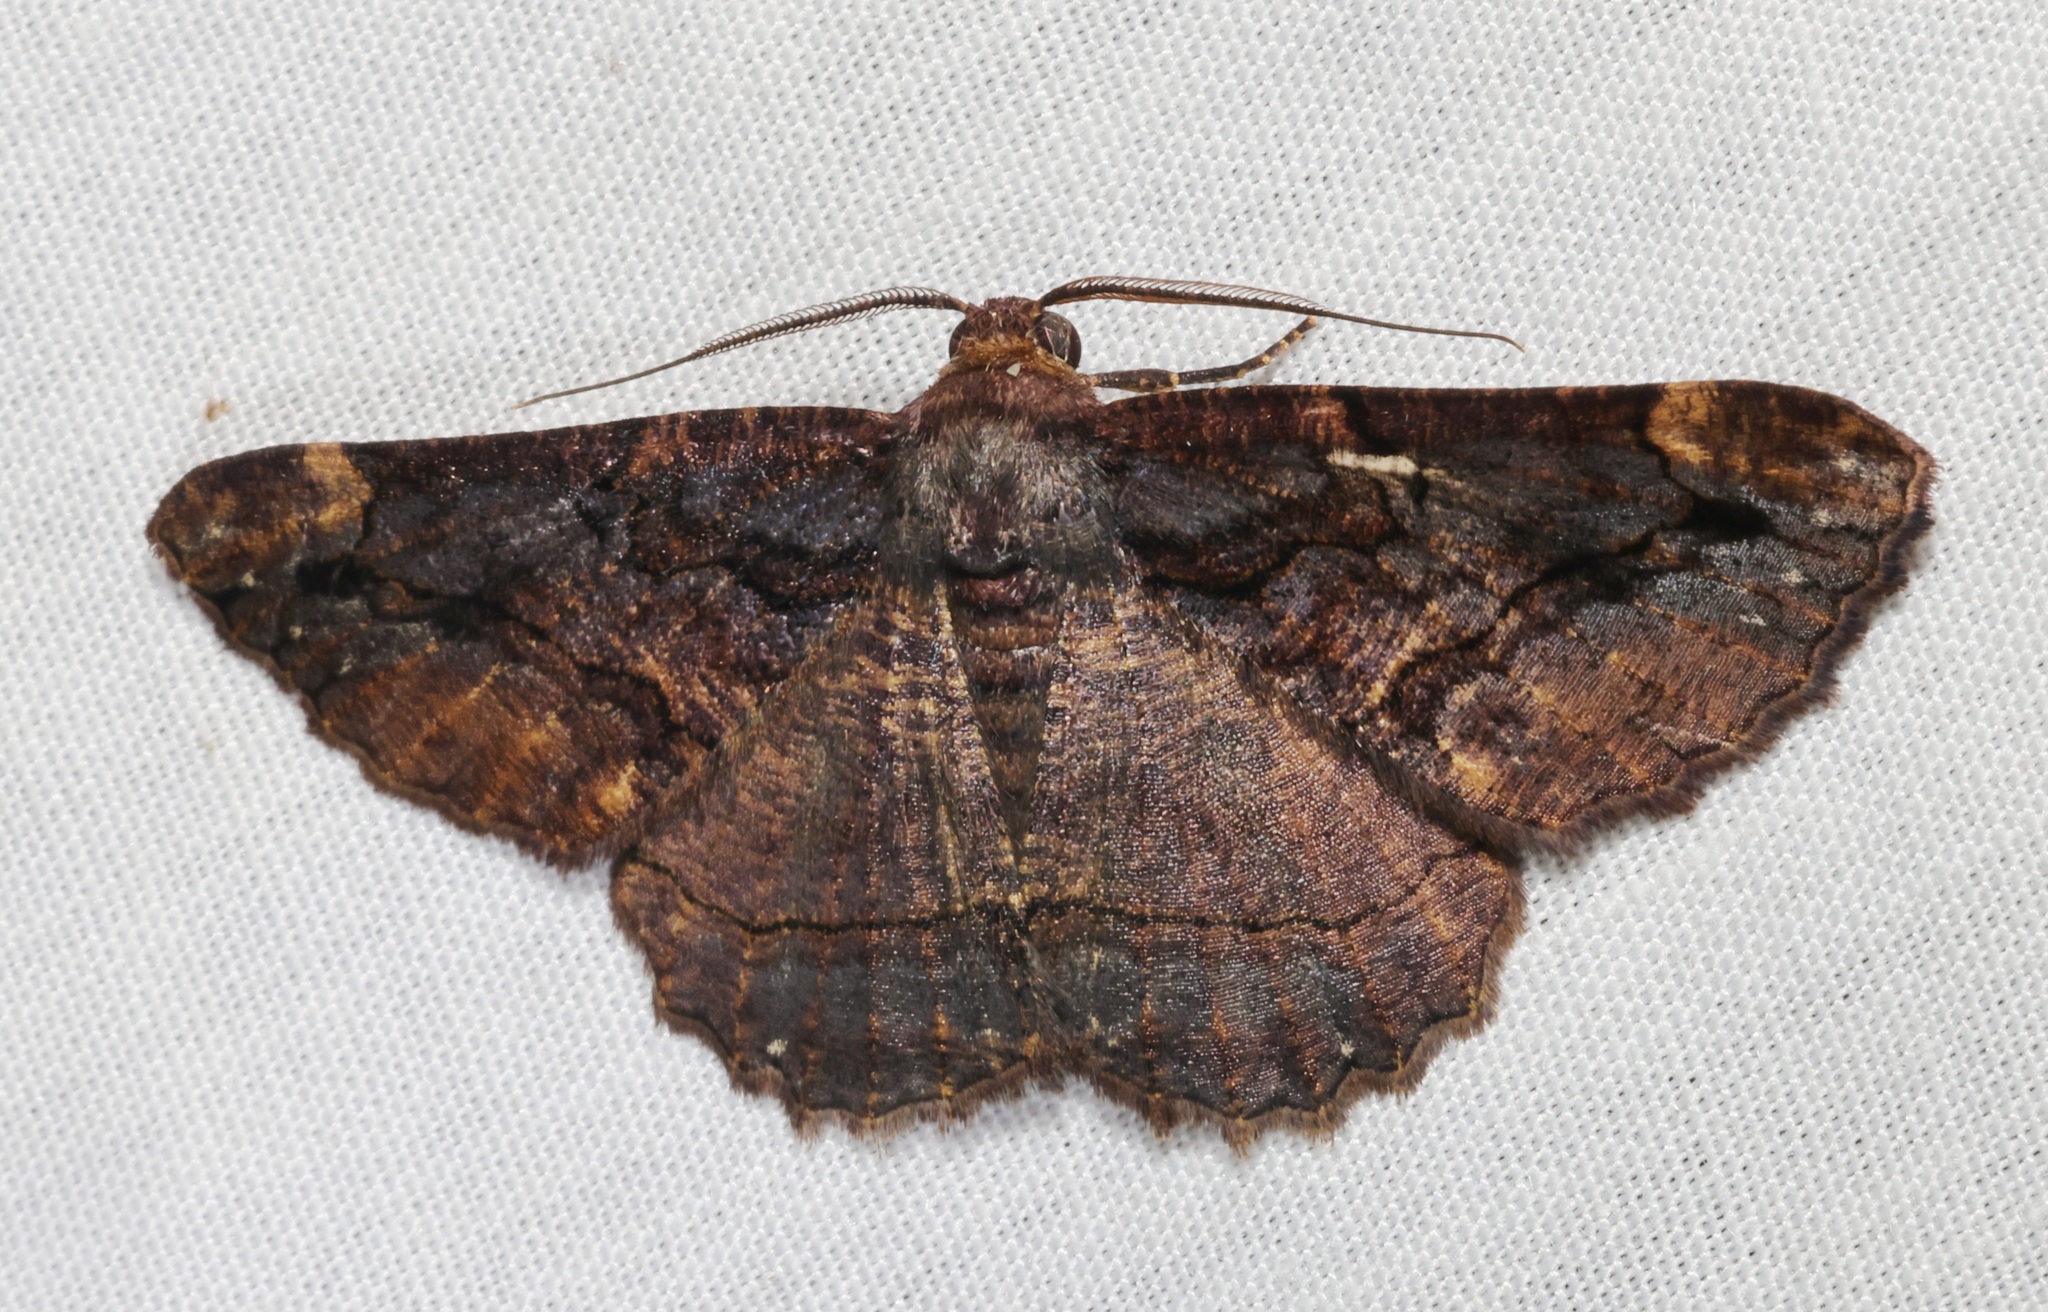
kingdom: Animalia
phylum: Arthropoda
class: Insecta
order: Lepidoptera
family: Geometridae
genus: Dasyboarmia
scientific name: Dasyboarmia subpilosa
